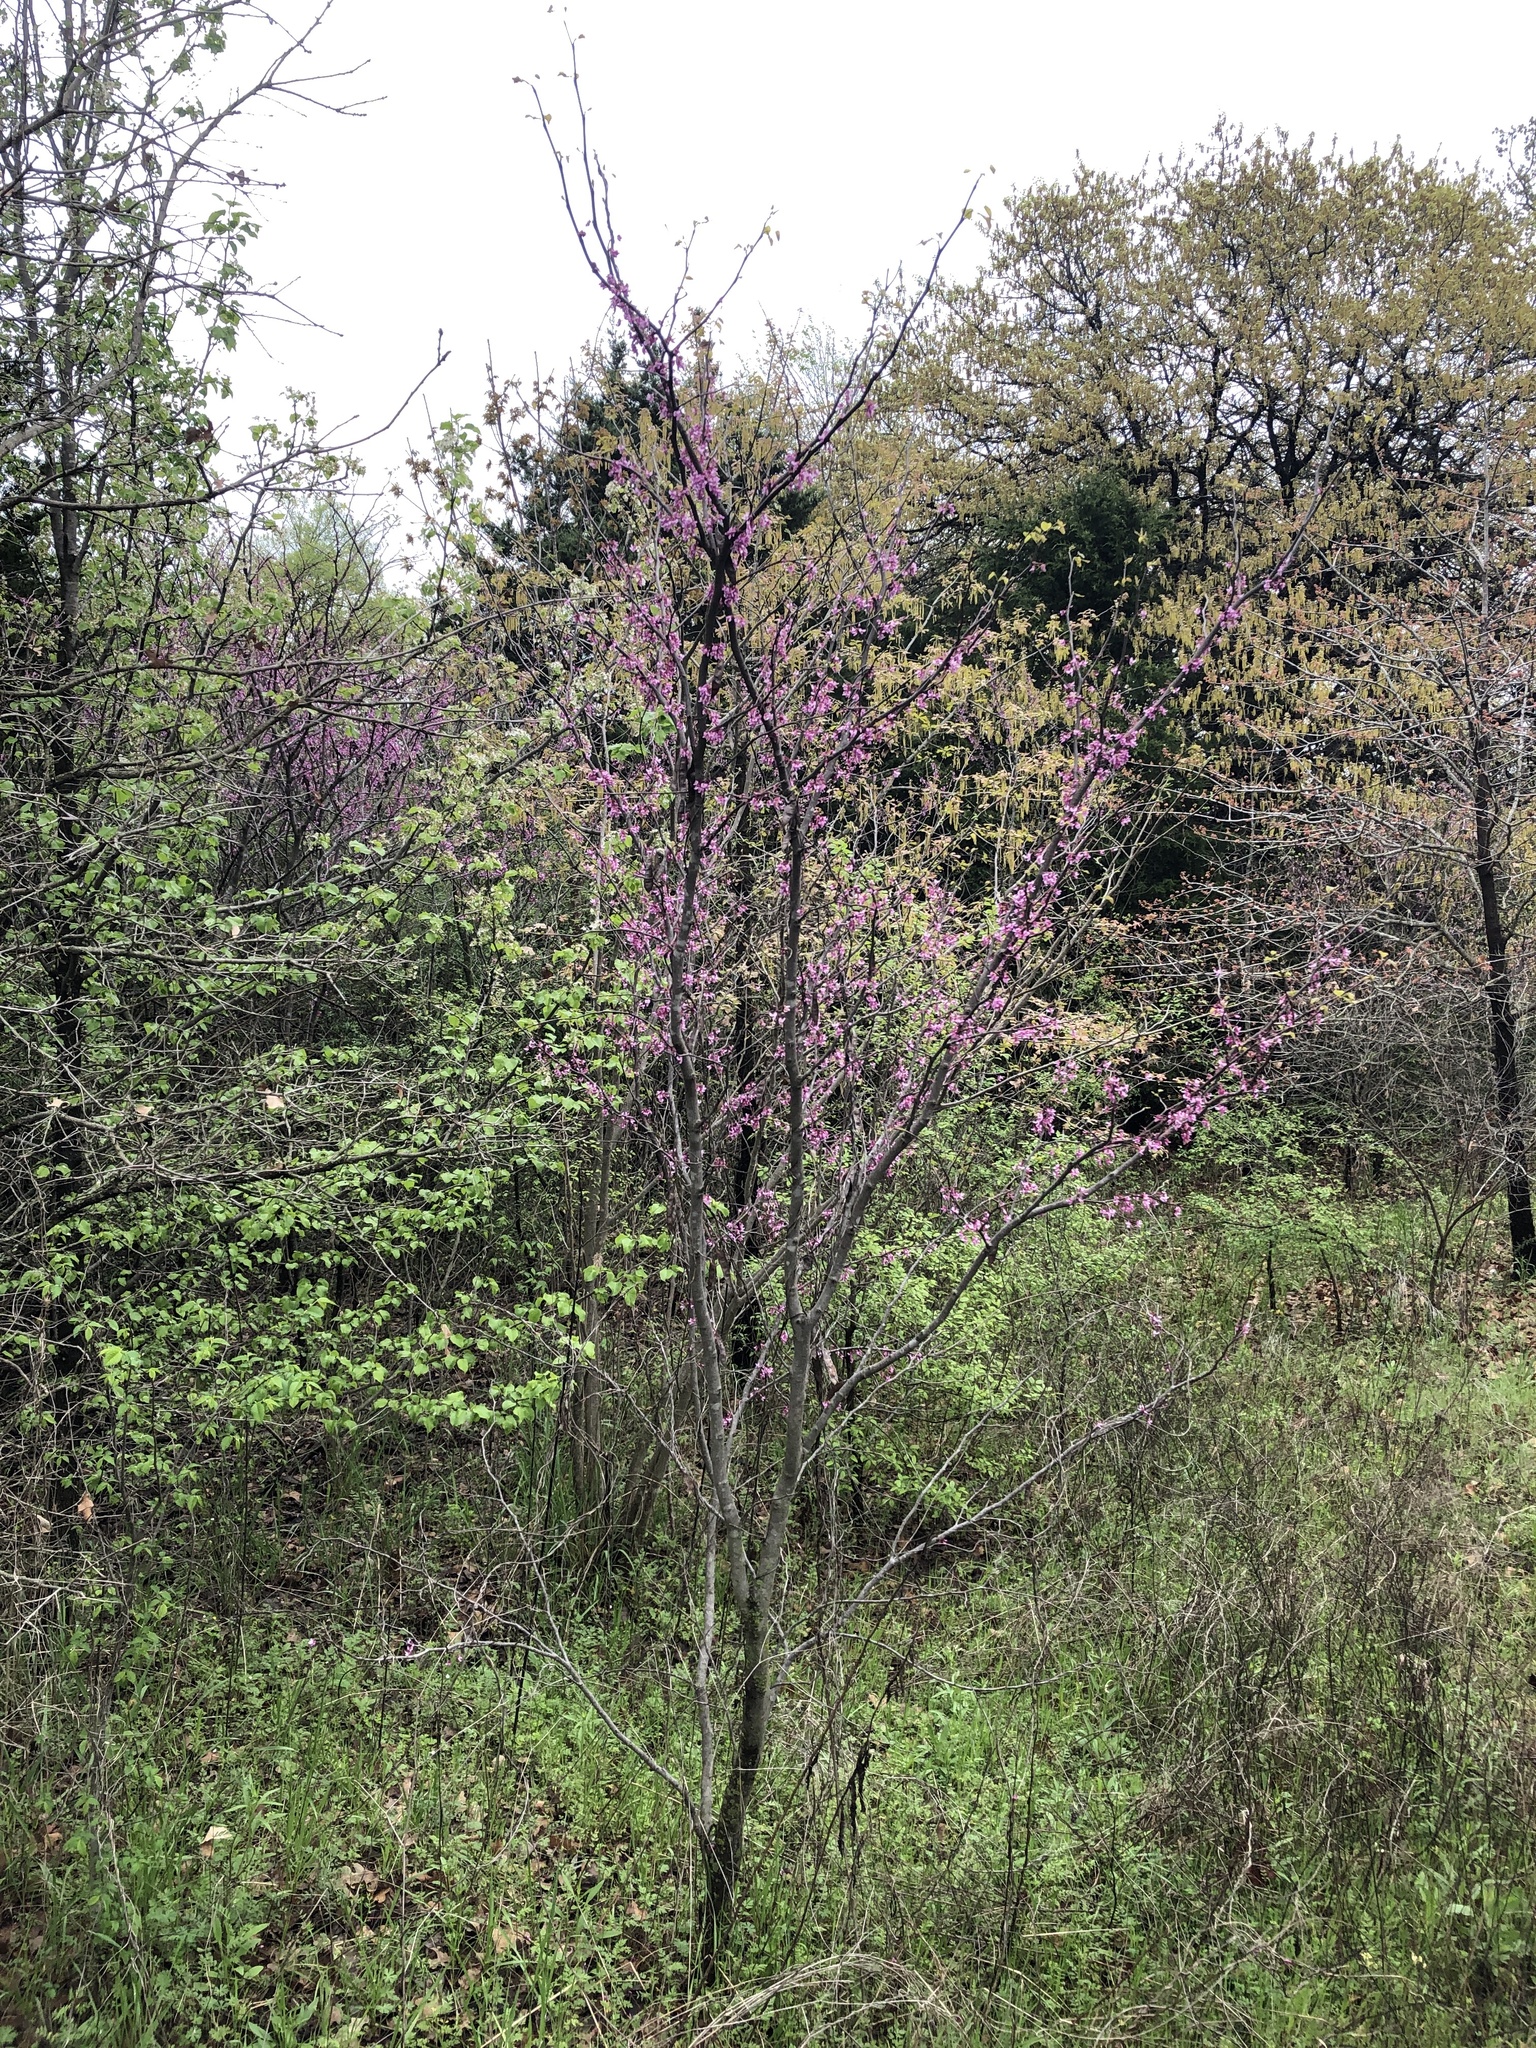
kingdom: Plantae
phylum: Tracheophyta
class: Magnoliopsida
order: Fabales
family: Fabaceae
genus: Cercis
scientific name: Cercis canadensis
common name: Eastern redbud
